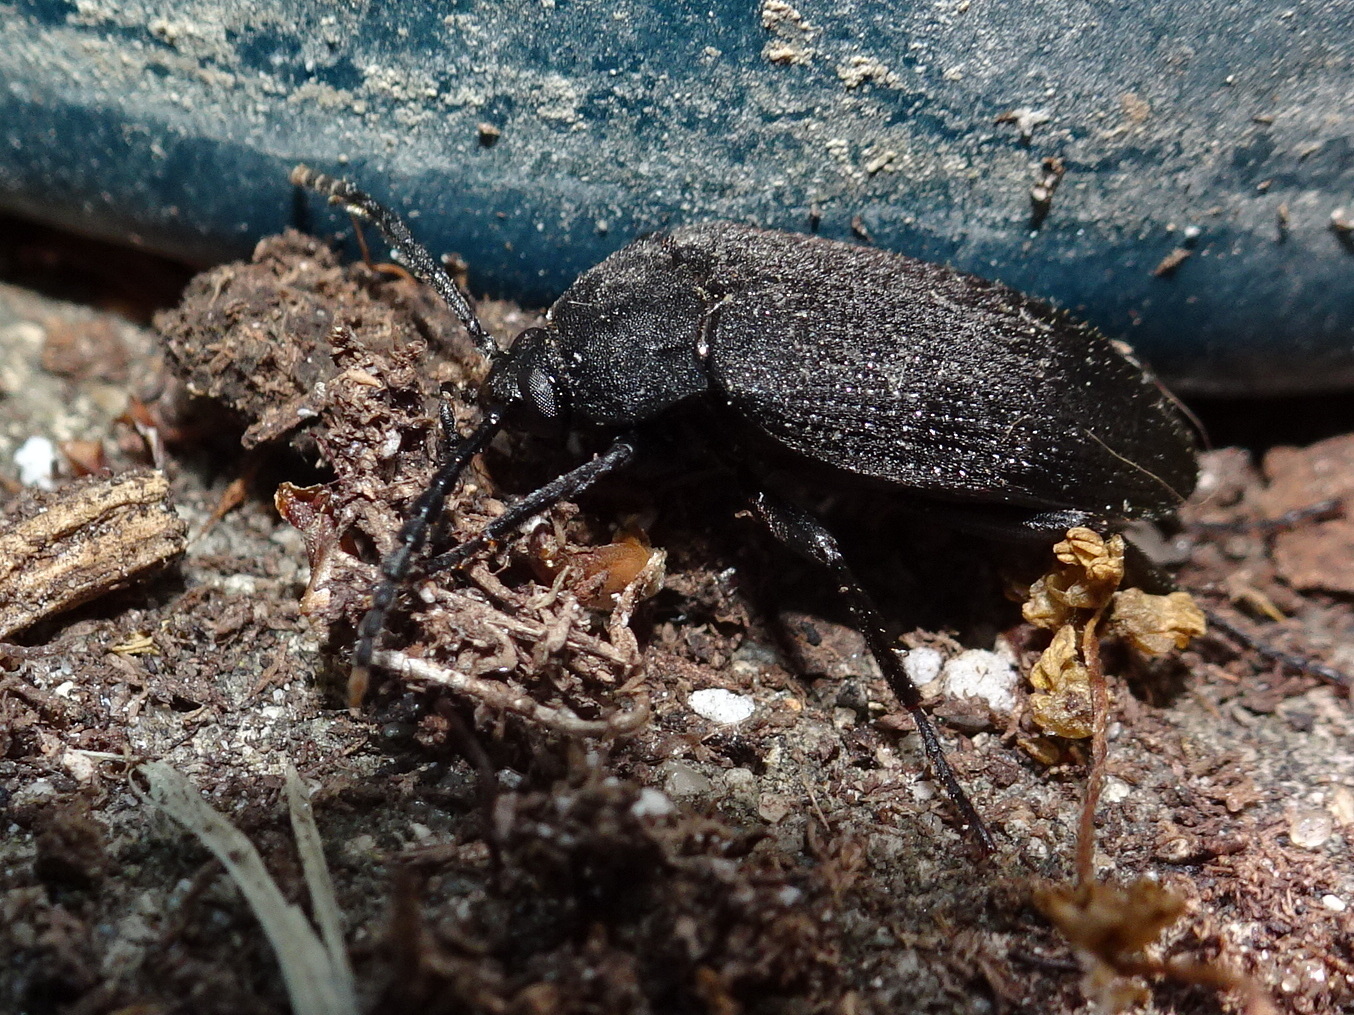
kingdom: Animalia
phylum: Arthropoda
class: Insecta
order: Coleoptera
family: Tetratomidae
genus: Penthe
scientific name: Penthe pimelia
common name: Velvety bark beetle
